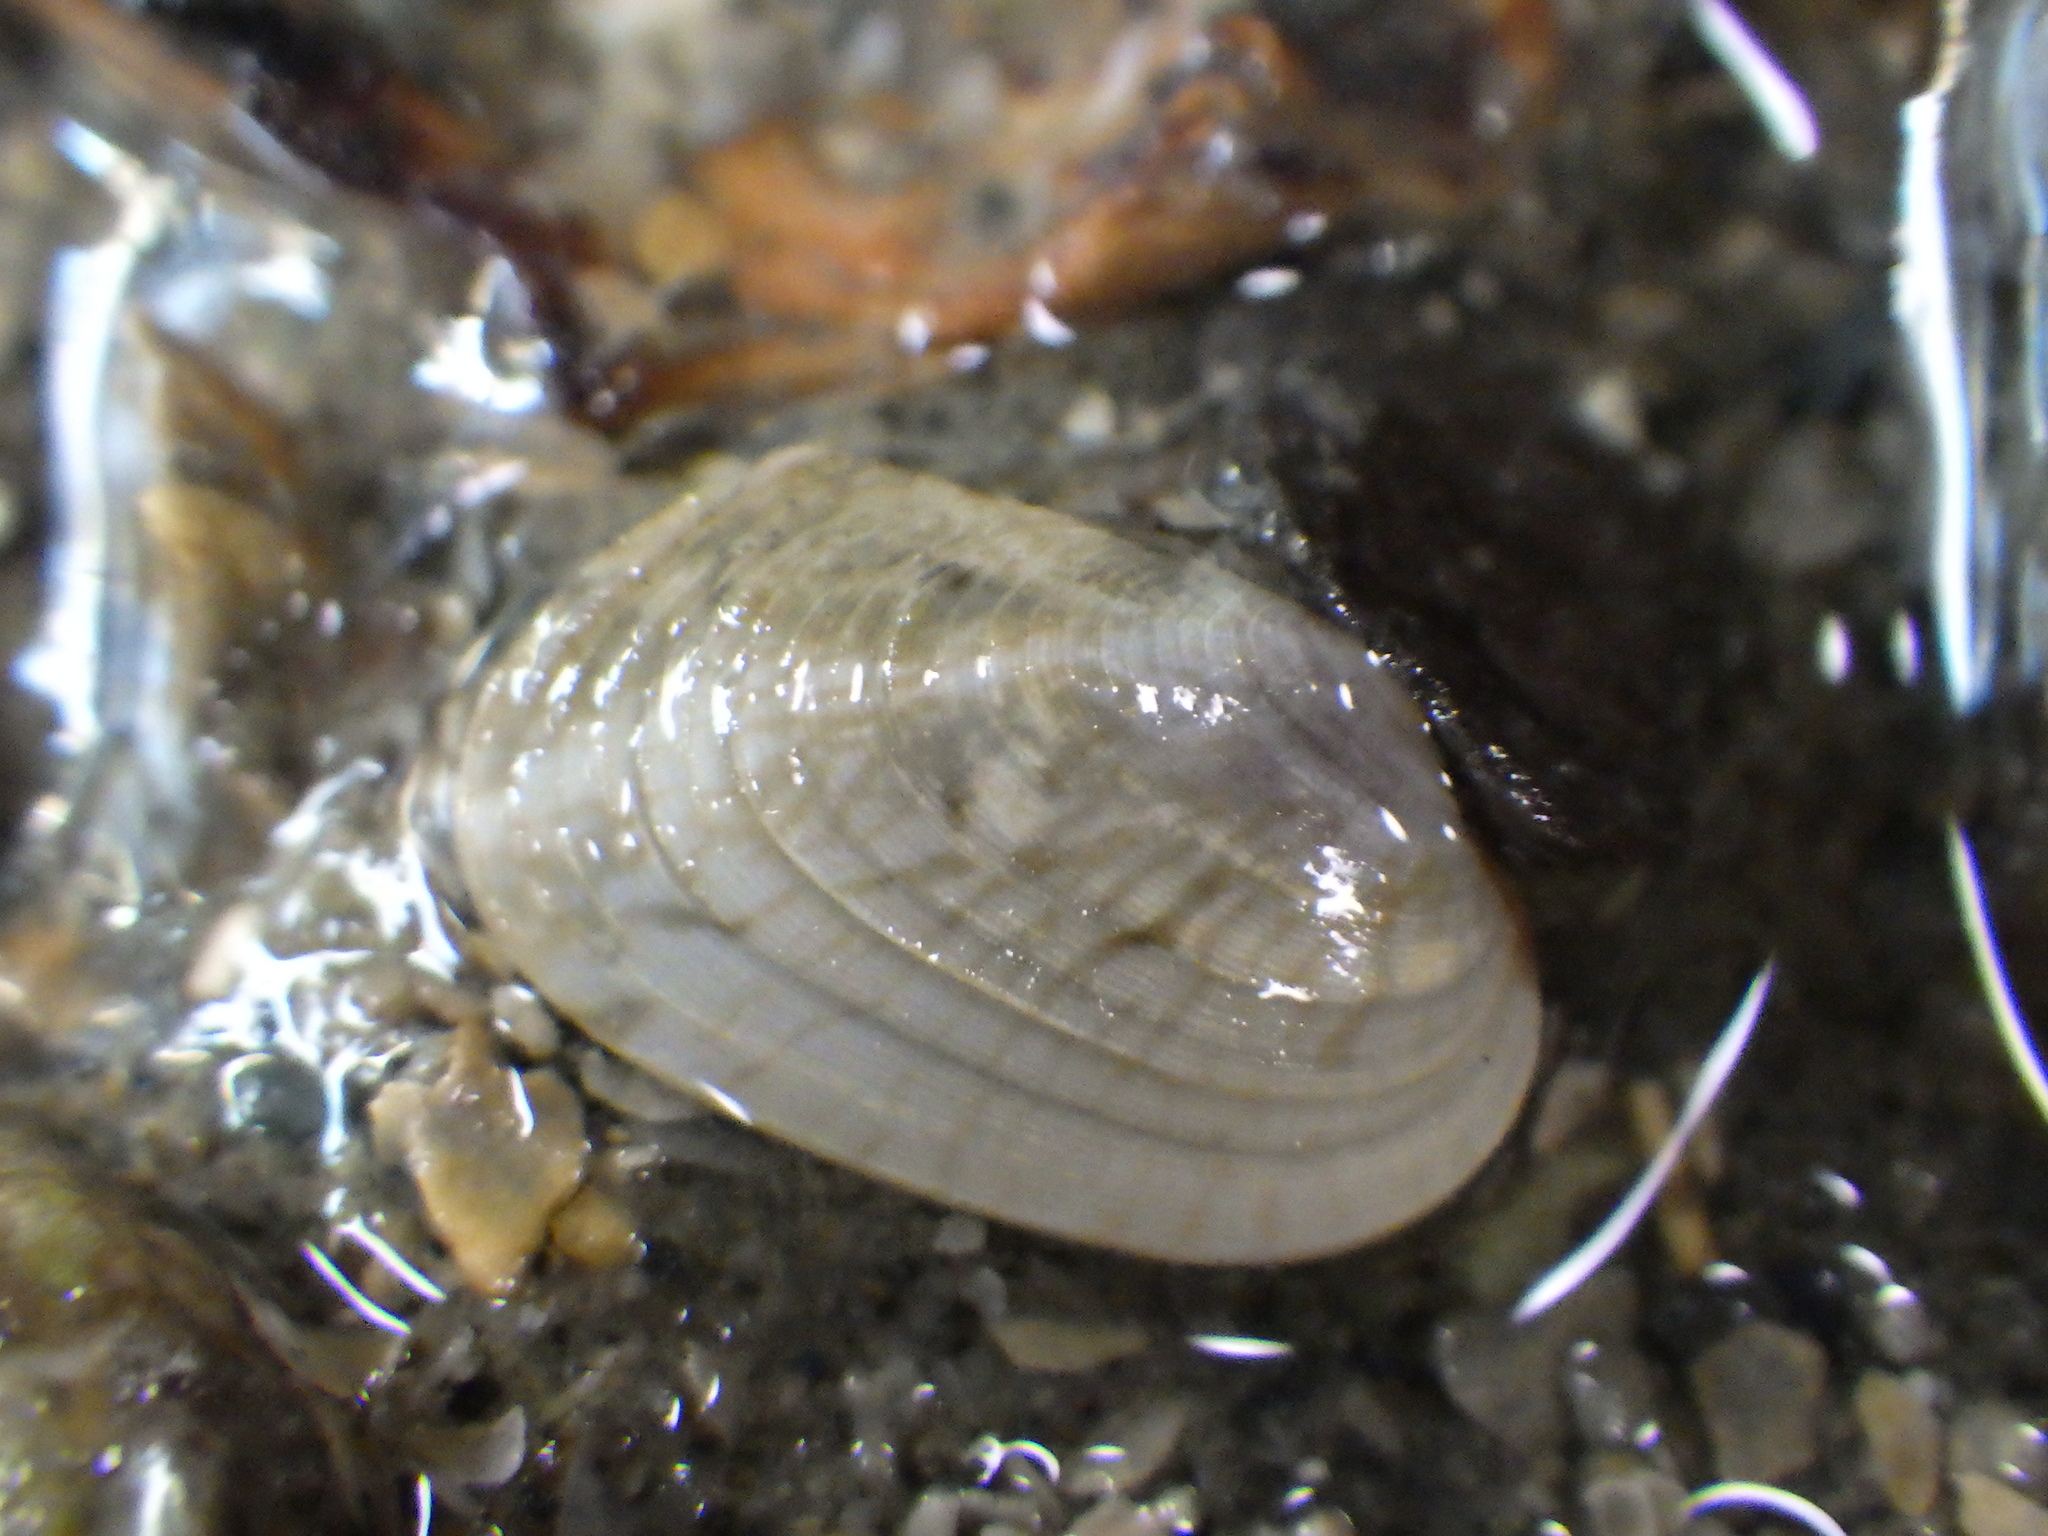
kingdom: Animalia
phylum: Mollusca
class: Bivalvia
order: Venerida
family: Veneridae
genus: Irus
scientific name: Irus reflexus
